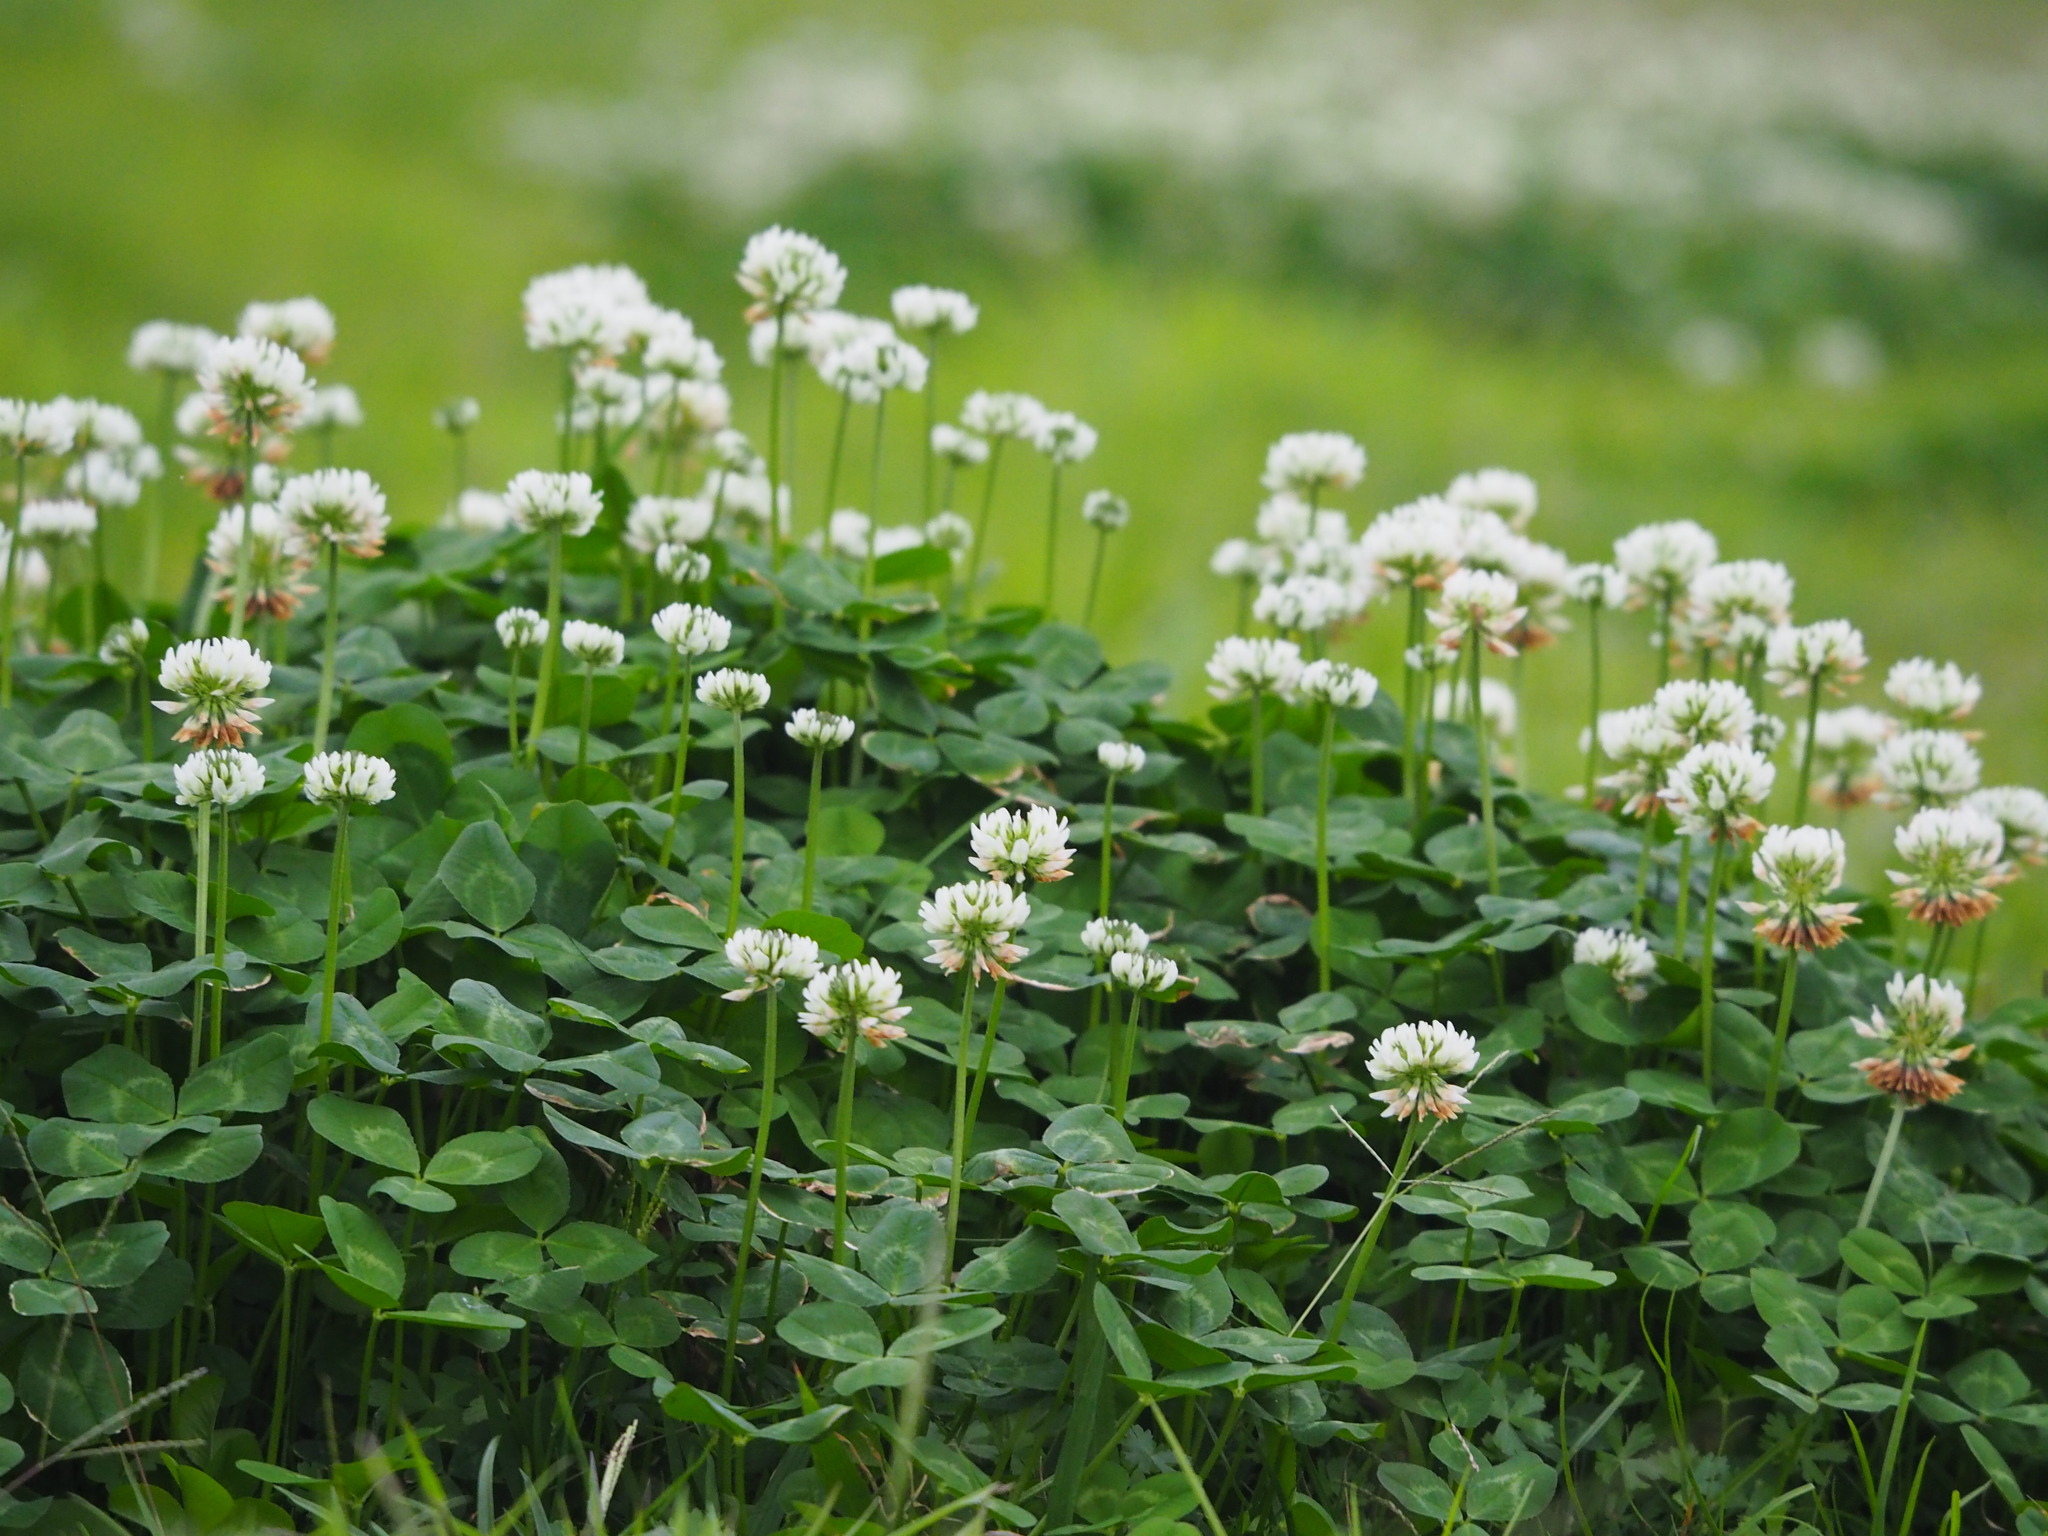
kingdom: Plantae
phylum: Tracheophyta
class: Magnoliopsida
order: Fabales
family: Fabaceae
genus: Trifolium
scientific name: Trifolium repens
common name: White clover
